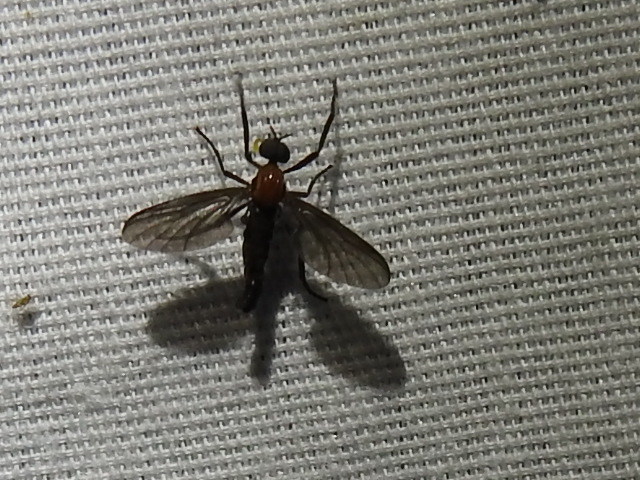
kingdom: Animalia
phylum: Arthropoda
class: Insecta
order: Diptera
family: Bibionidae
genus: Plecia
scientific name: Plecia nearctica
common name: March fly
